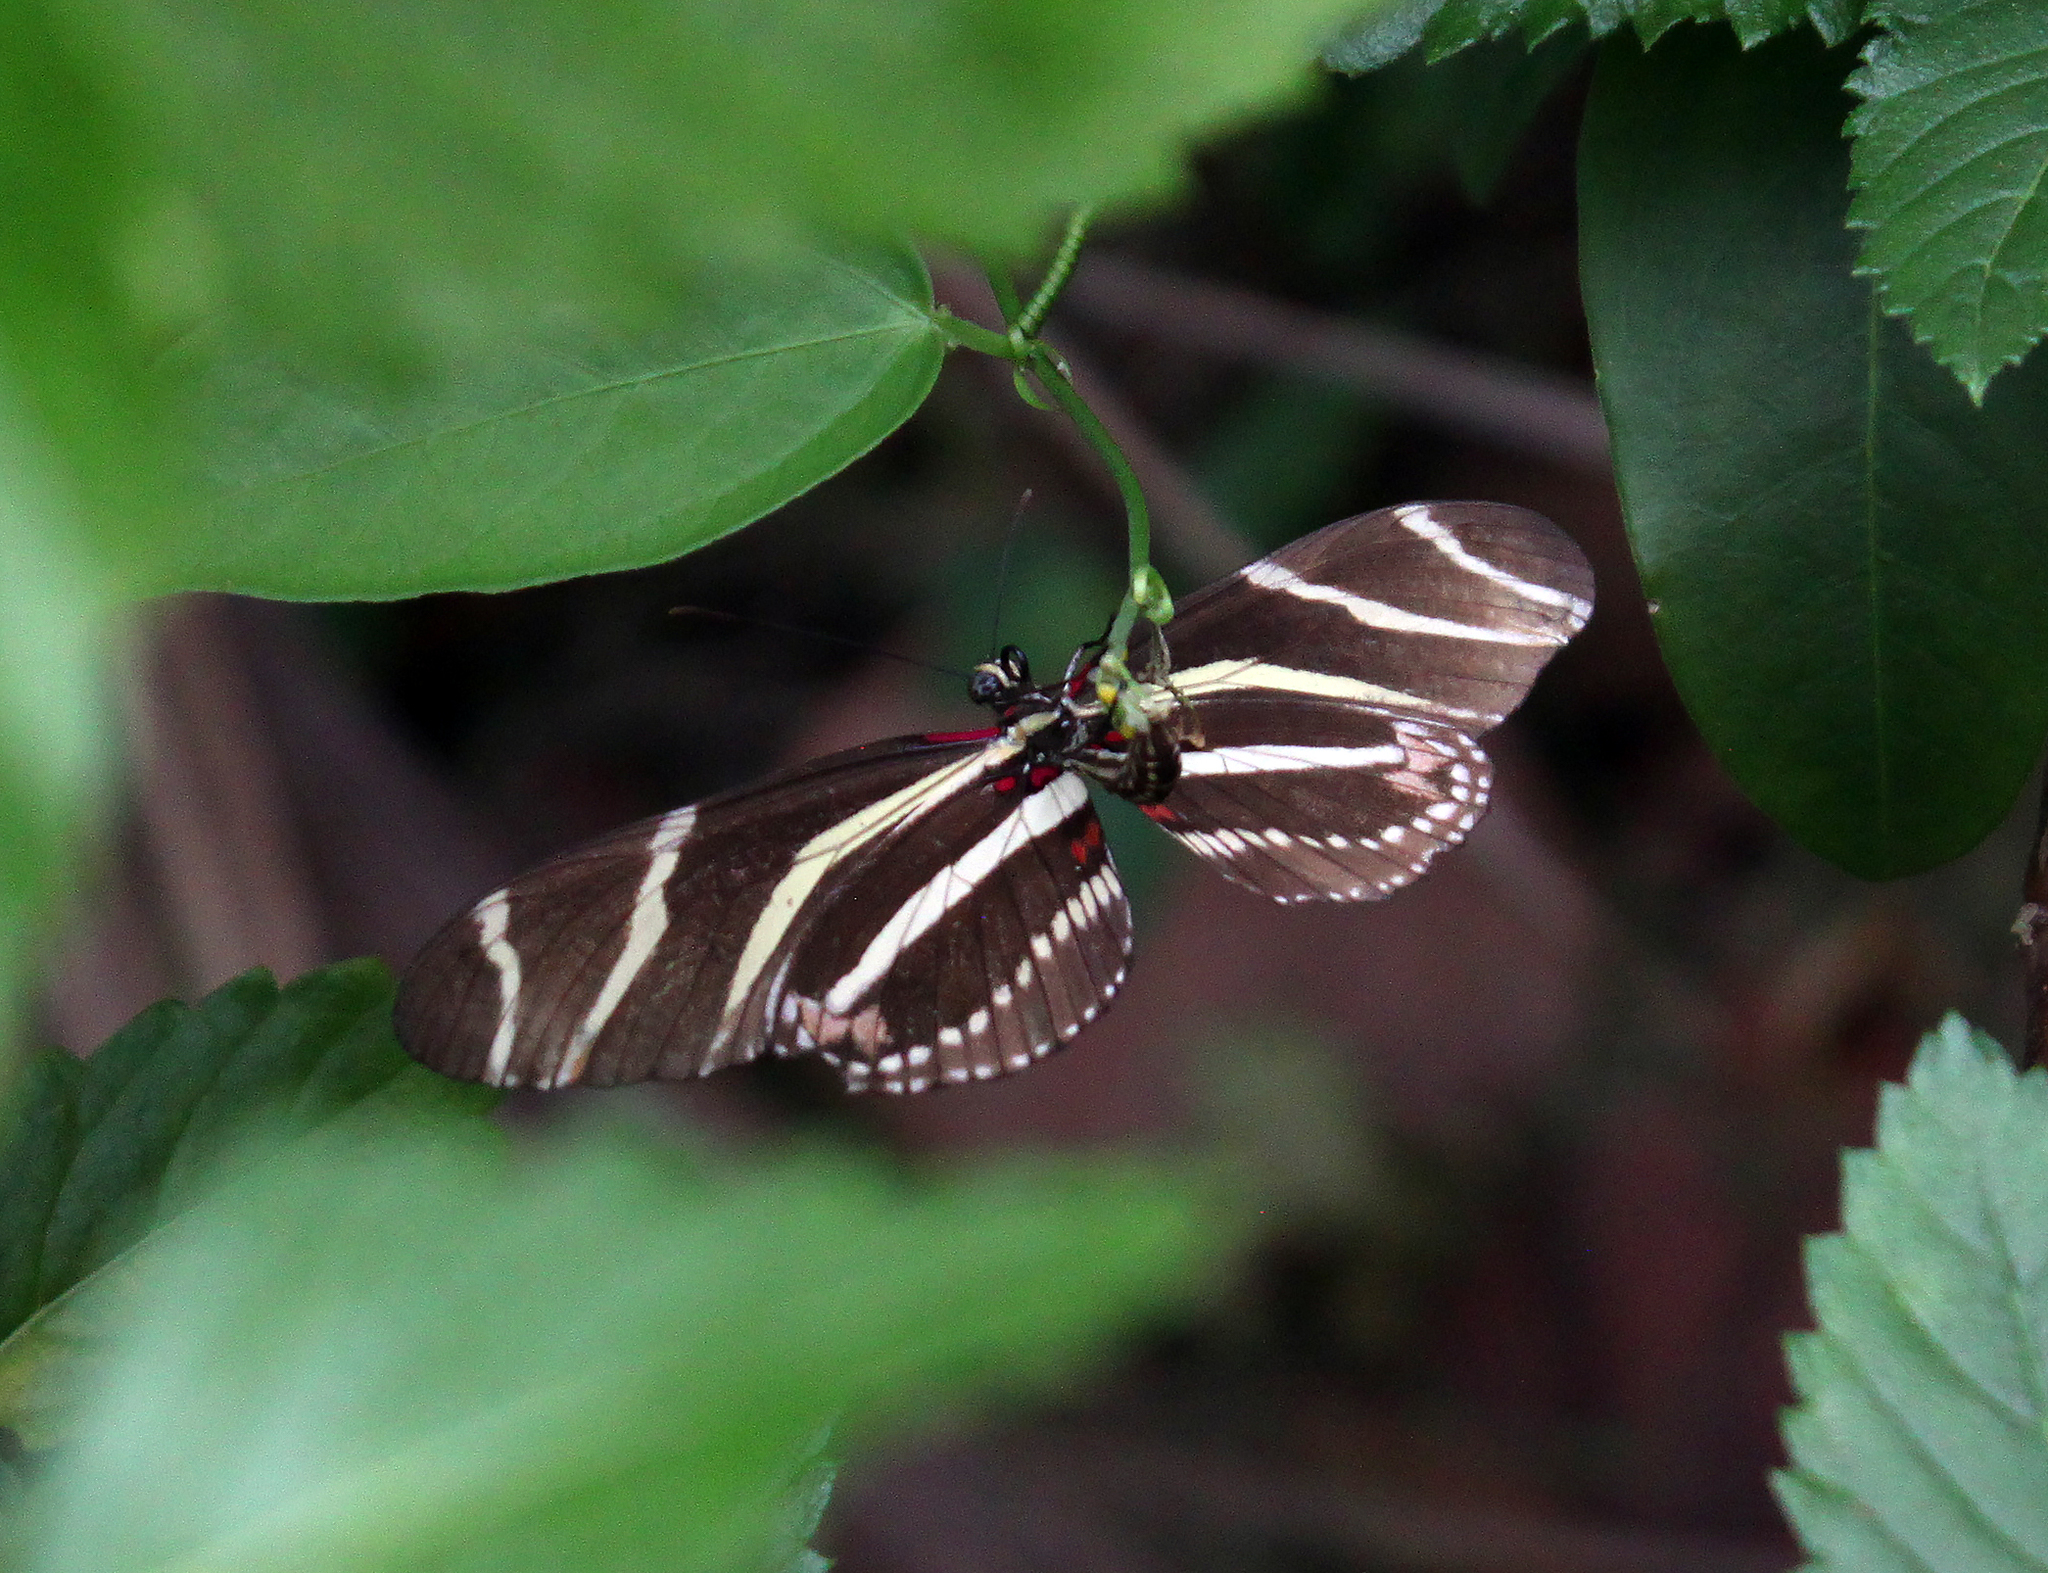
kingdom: Animalia
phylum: Arthropoda
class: Insecta
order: Lepidoptera
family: Nymphalidae
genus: Heliconius
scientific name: Heliconius charithonia
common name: Zebra long wing
